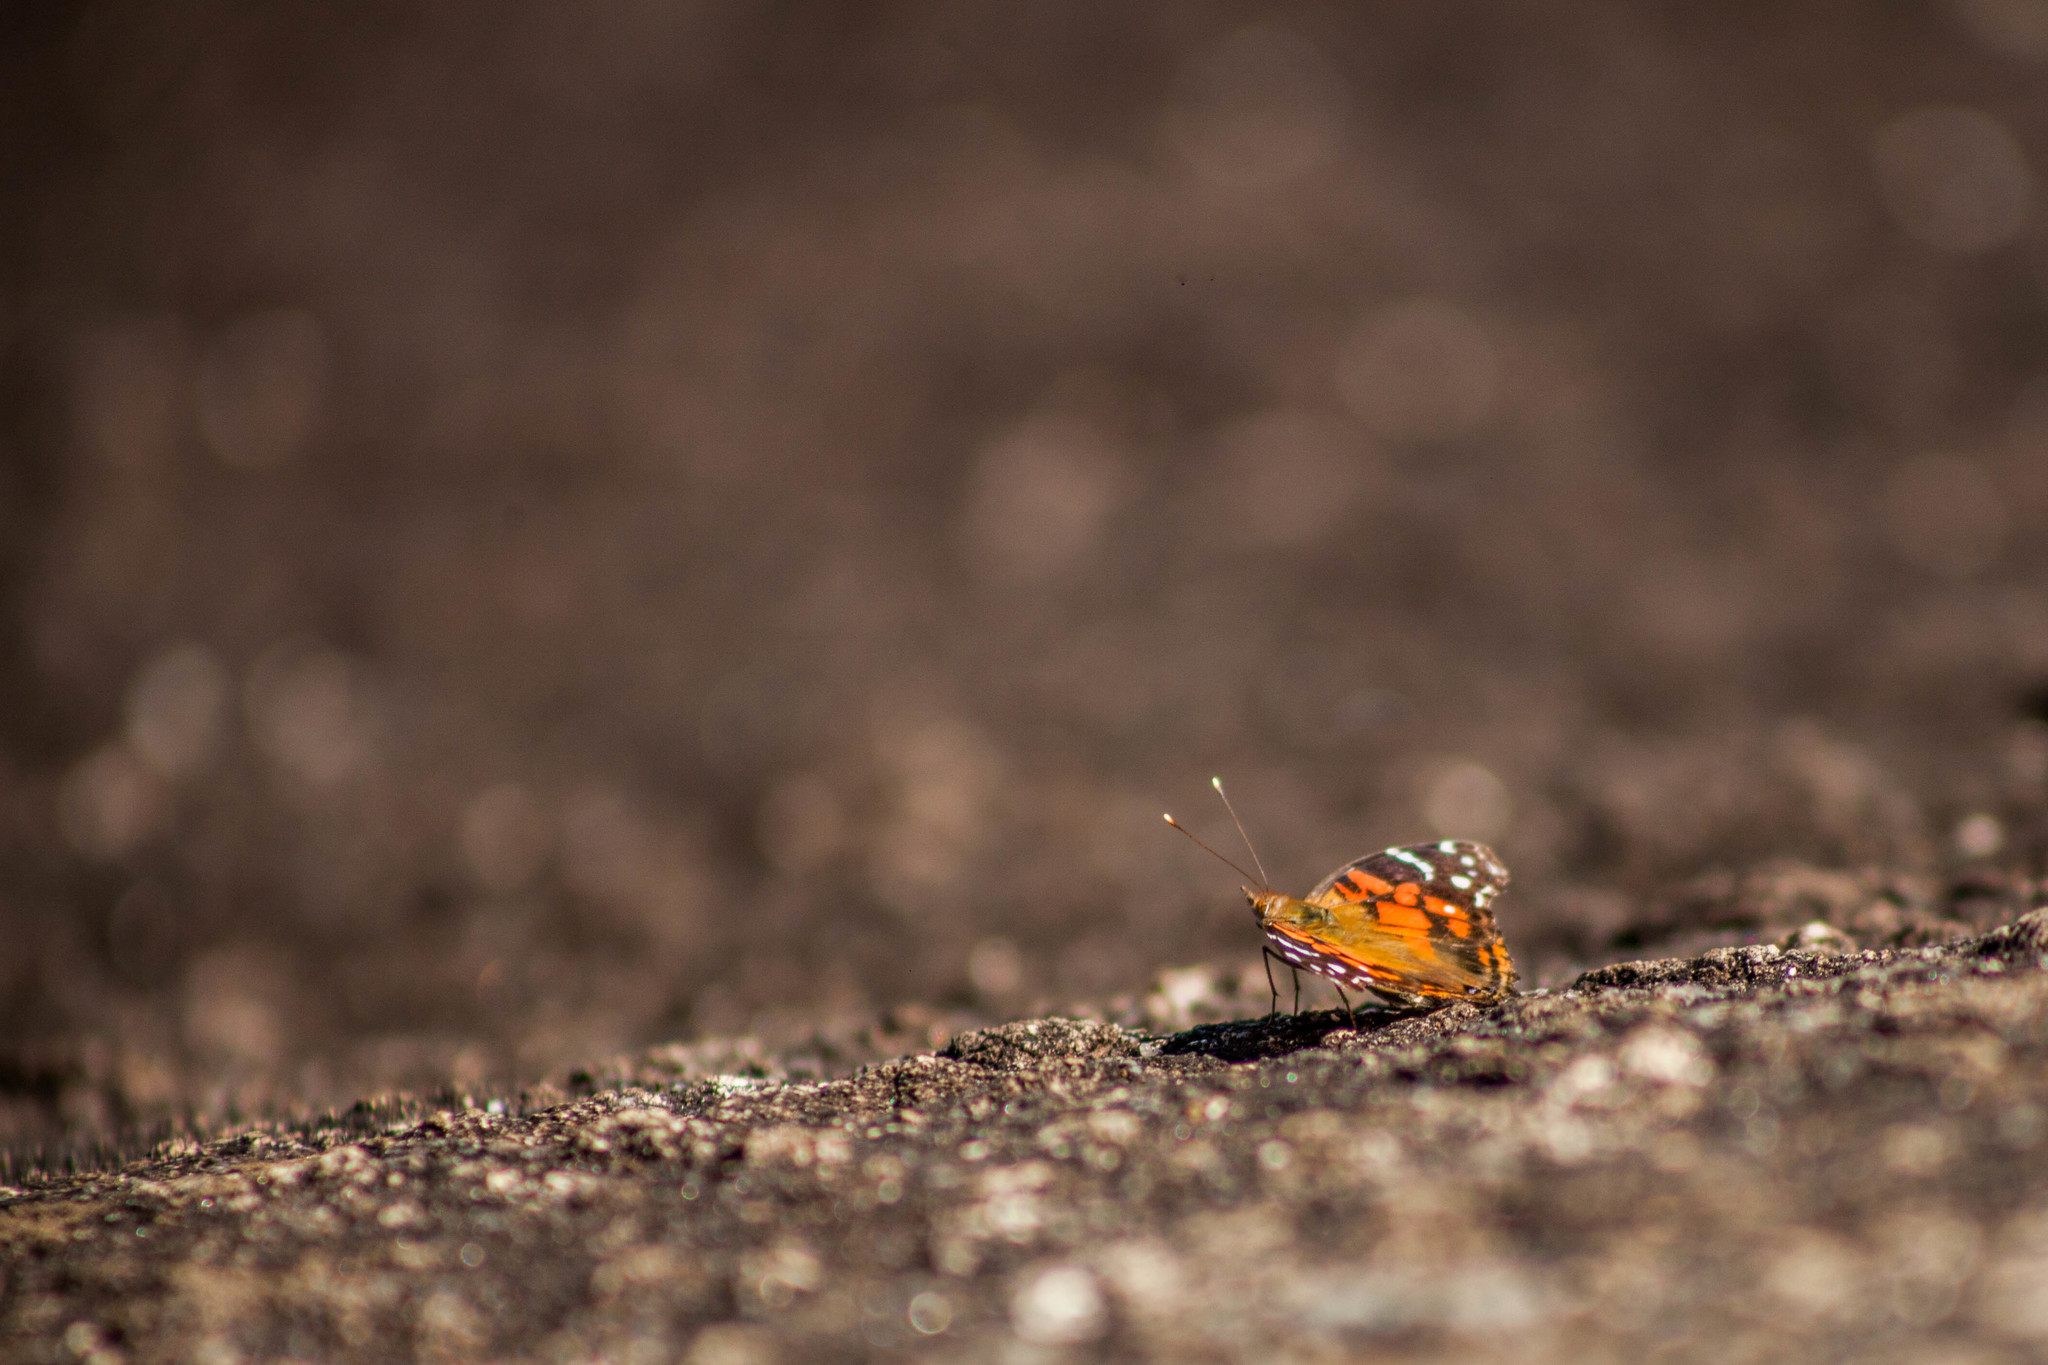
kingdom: Animalia
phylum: Arthropoda
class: Insecta
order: Lepidoptera
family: Nymphalidae
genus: Vanessa
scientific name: Vanessa myrinna
